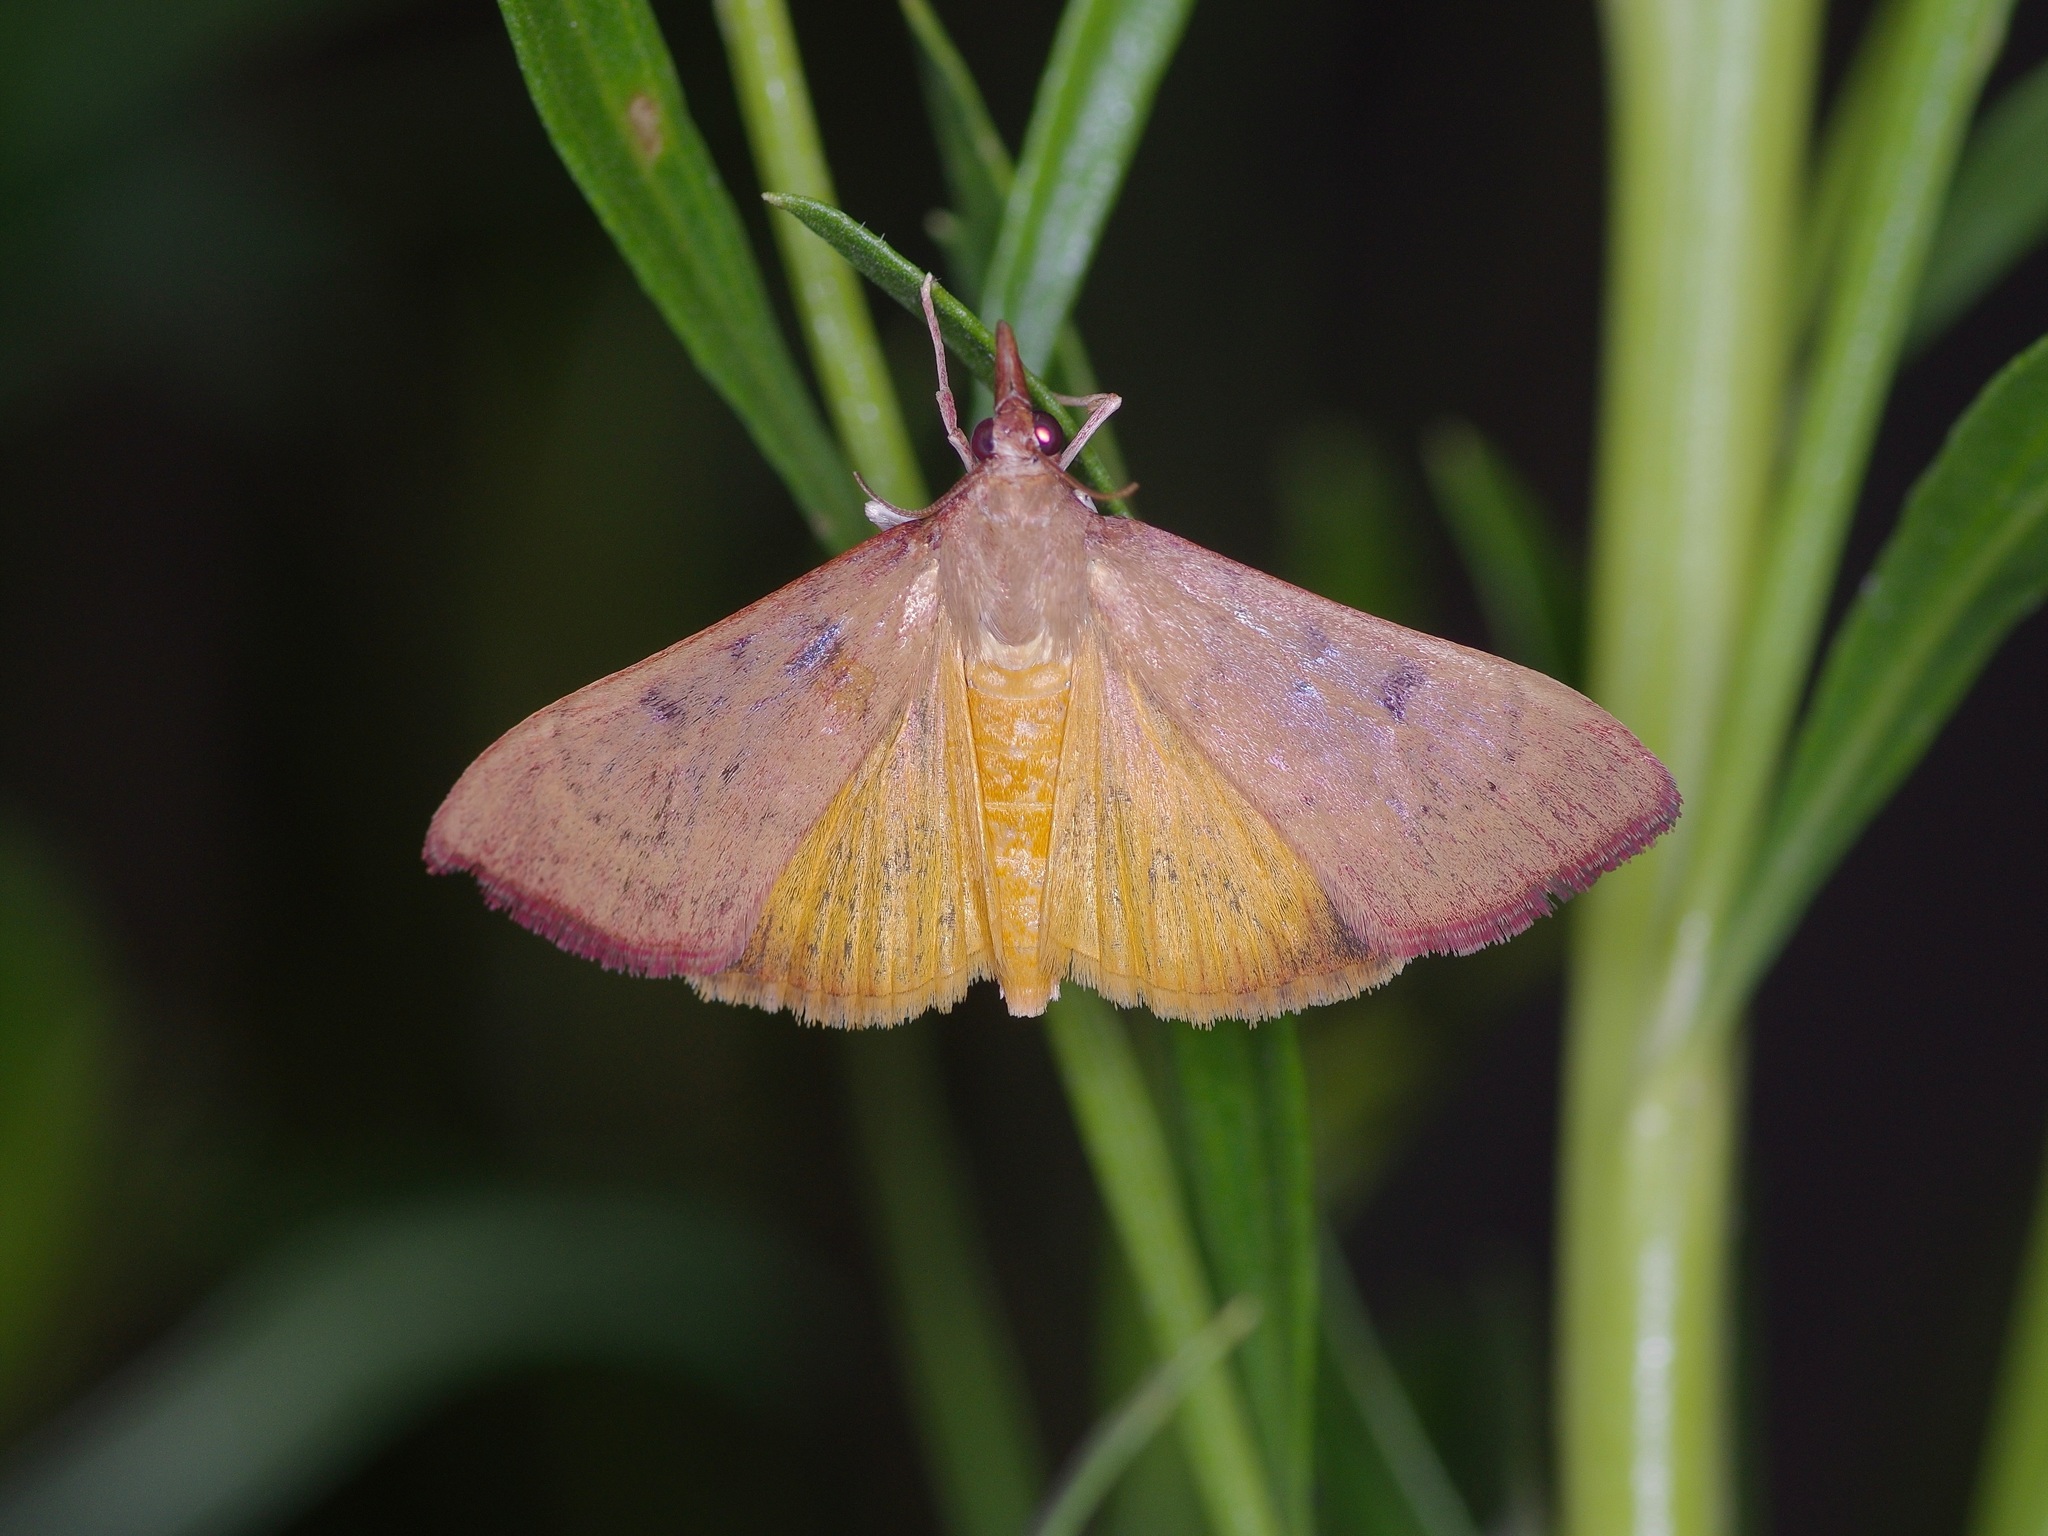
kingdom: Animalia
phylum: Arthropoda
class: Insecta
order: Lepidoptera
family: Crambidae
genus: Uresiphita
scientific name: Uresiphita reversalis
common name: Genista broom moth
